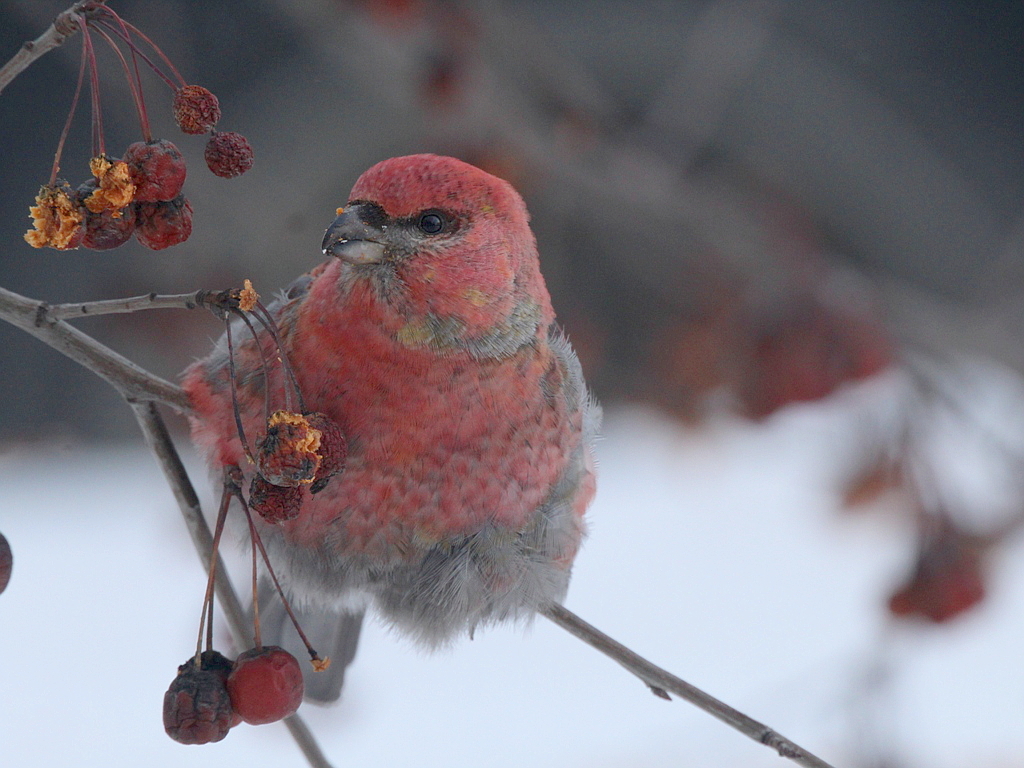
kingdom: Animalia
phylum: Chordata
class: Aves
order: Passeriformes
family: Fringillidae
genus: Pinicola
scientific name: Pinicola enucleator
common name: Pine grosbeak
